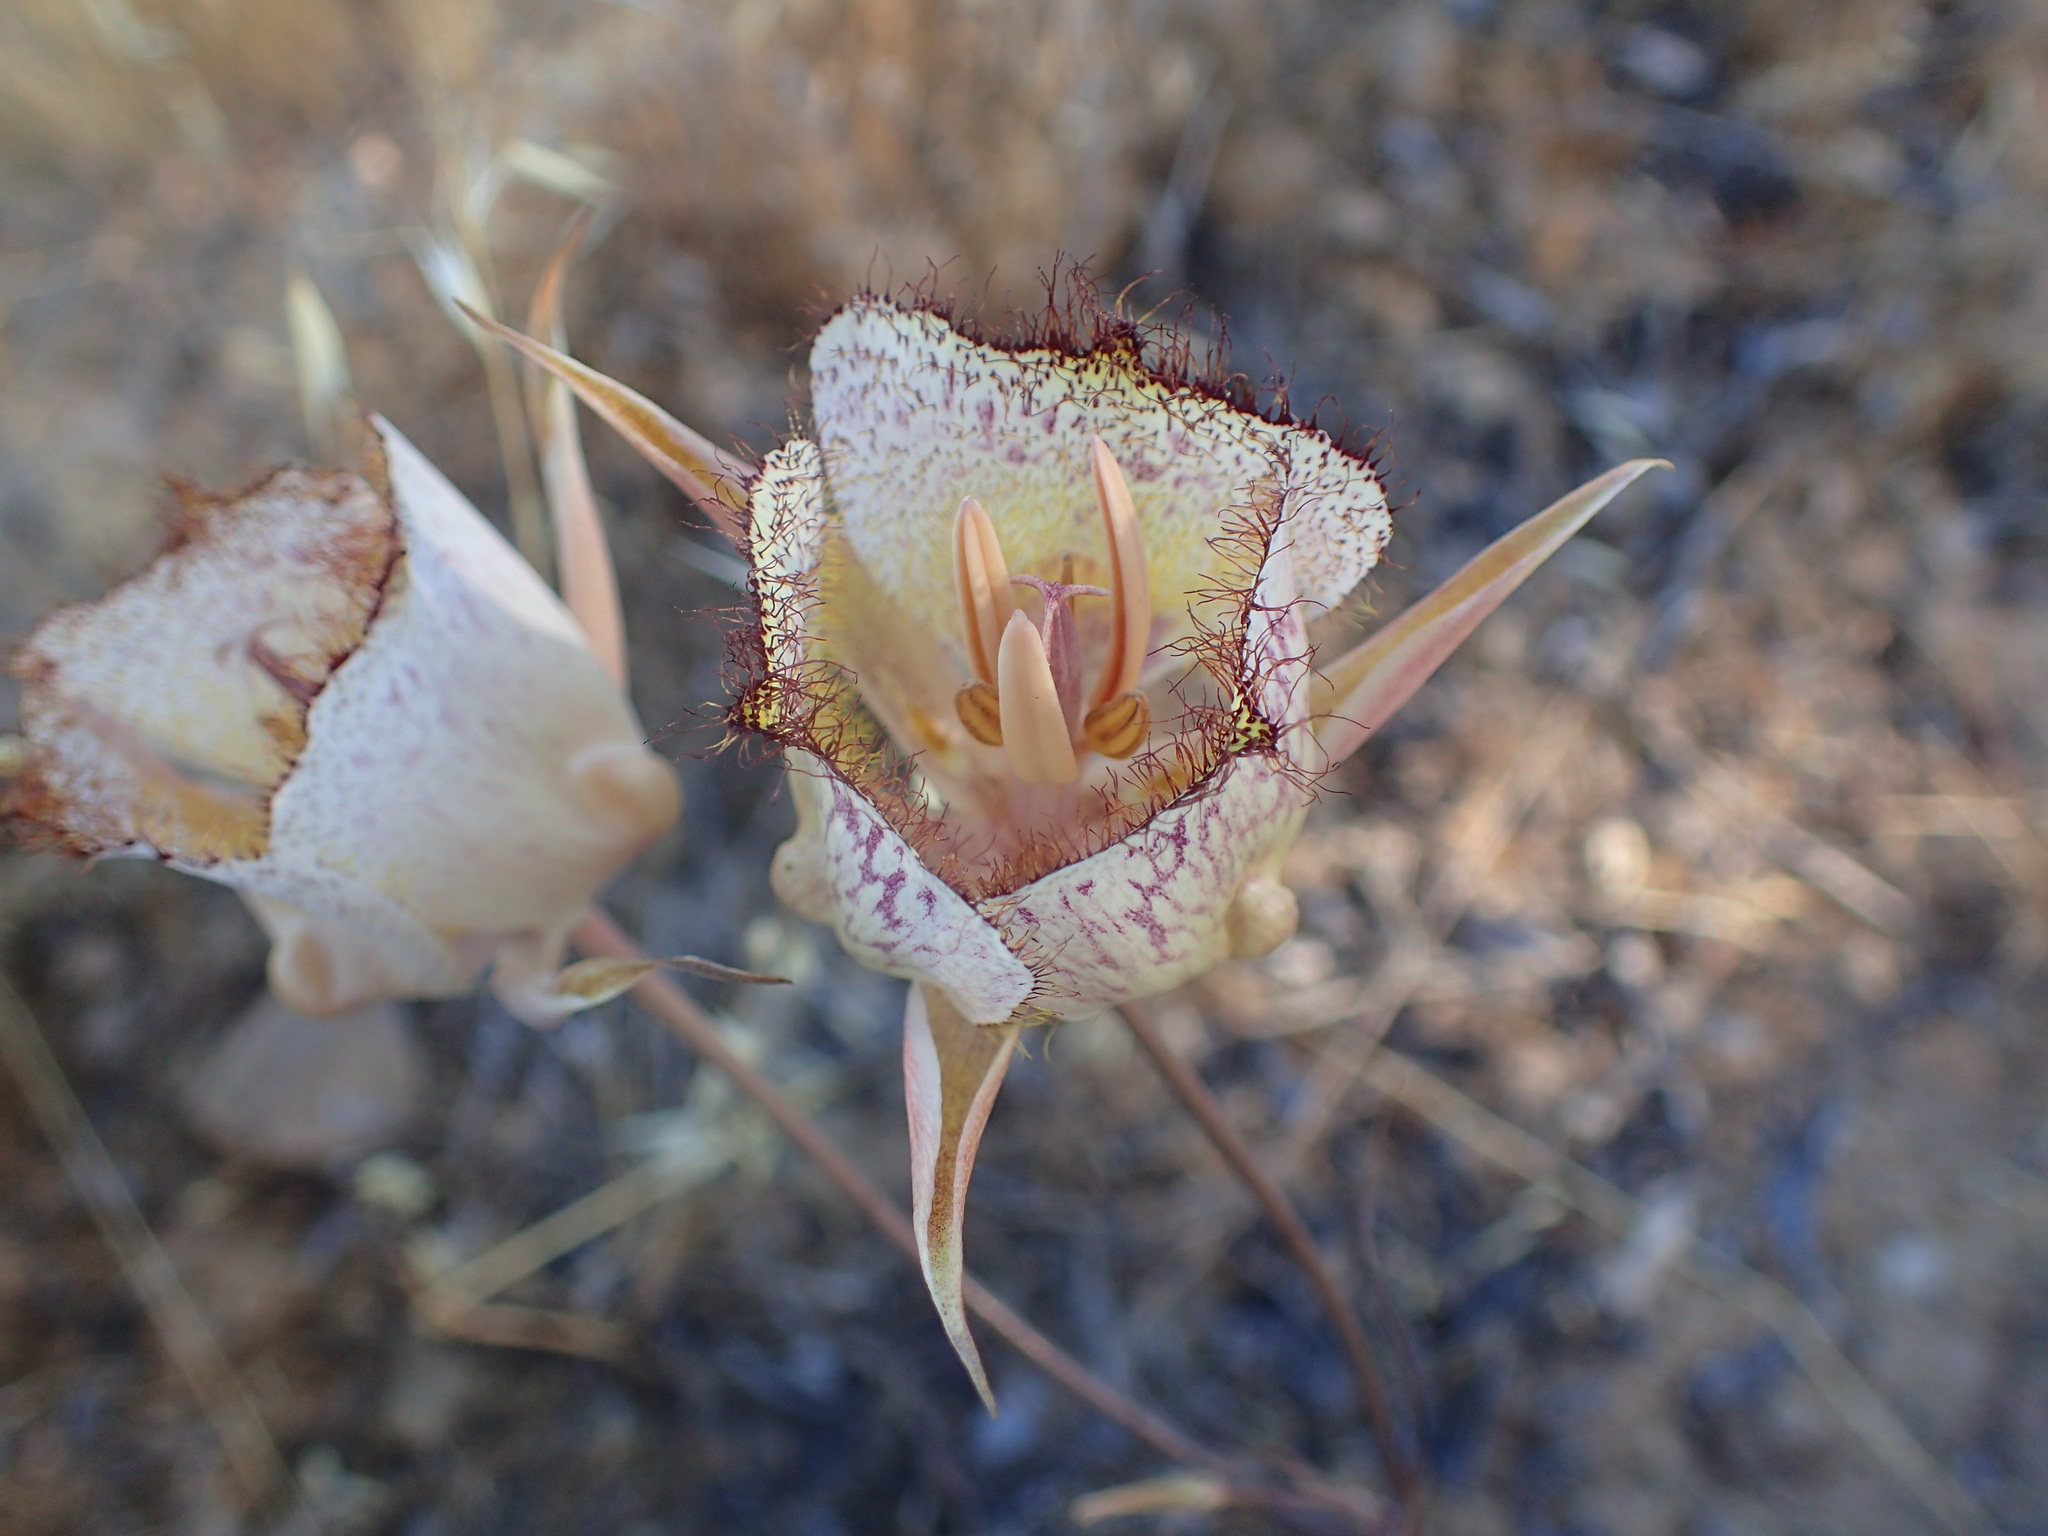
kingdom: Plantae
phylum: Tracheophyta
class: Liliopsida
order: Liliales
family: Liliaceae
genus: Calochortus
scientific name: Calochortus fimbriatus
